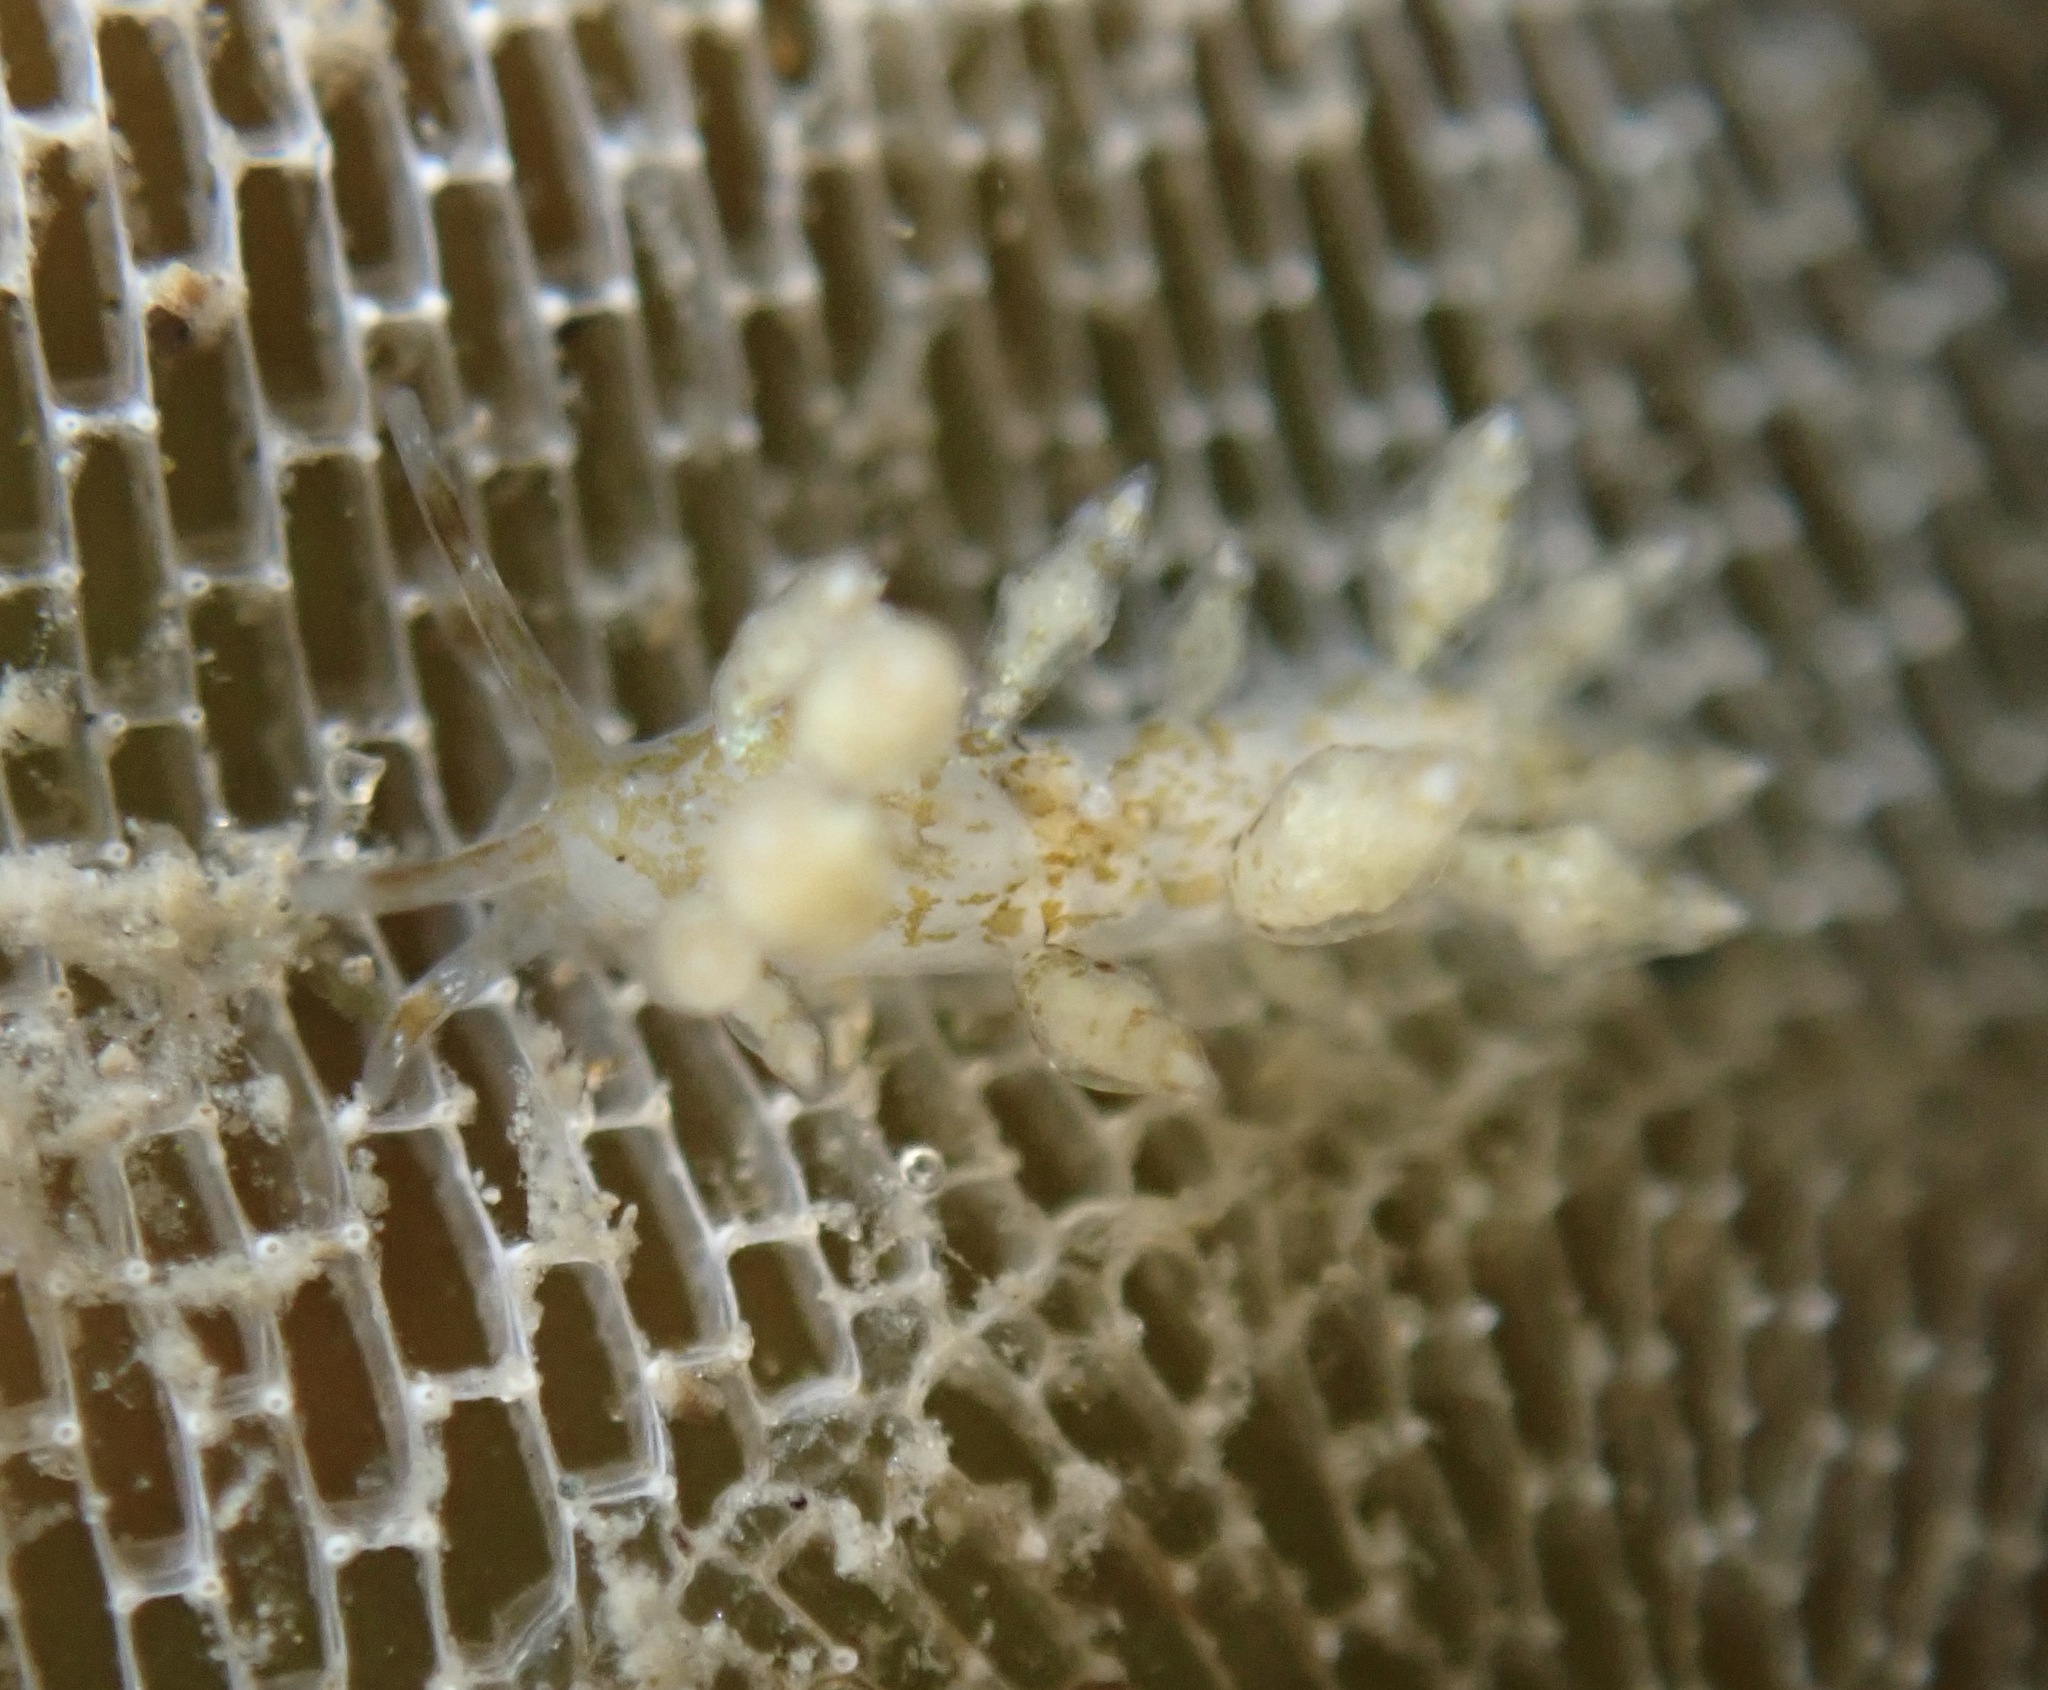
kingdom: Animalia
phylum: Mollusca
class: Gastropoda
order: Nudibranchia
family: Eubranchidae
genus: Eubranchus
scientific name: Eubranchus olivaceus
